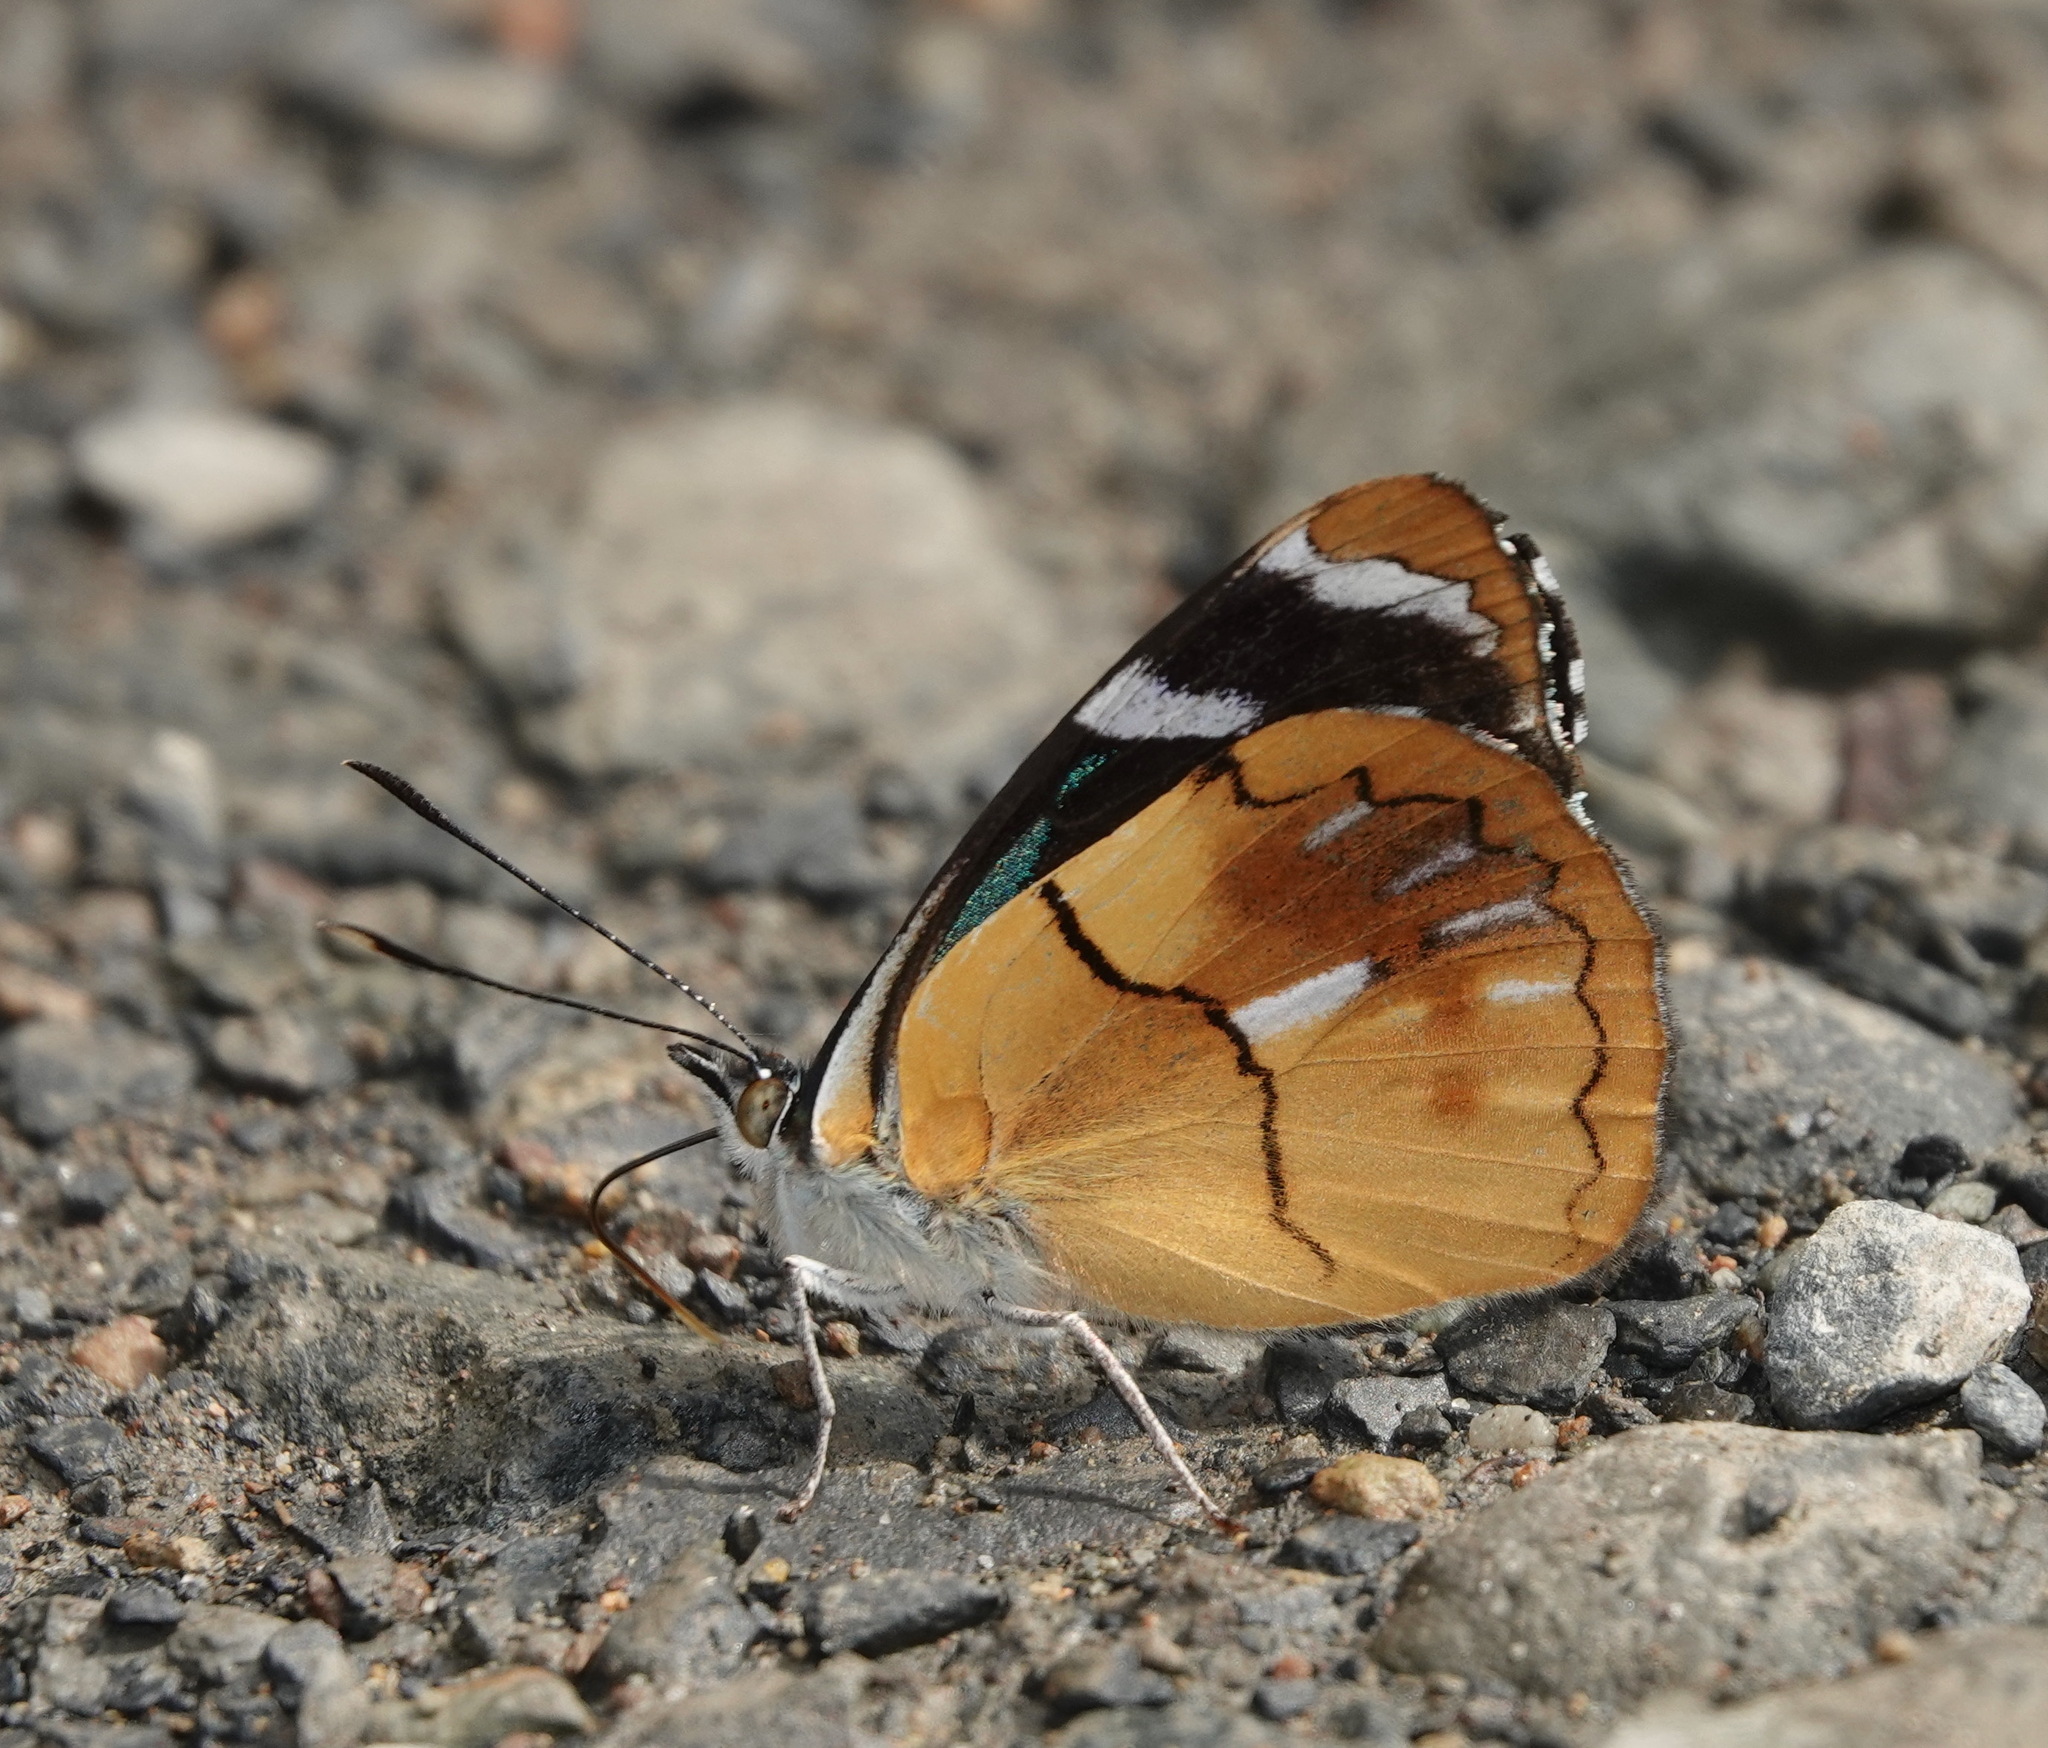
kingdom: Animalia
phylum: Arthropoda
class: Insecta
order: Lepidoptera
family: Nymphalidae
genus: Perisama
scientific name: Perisama nyctimene
